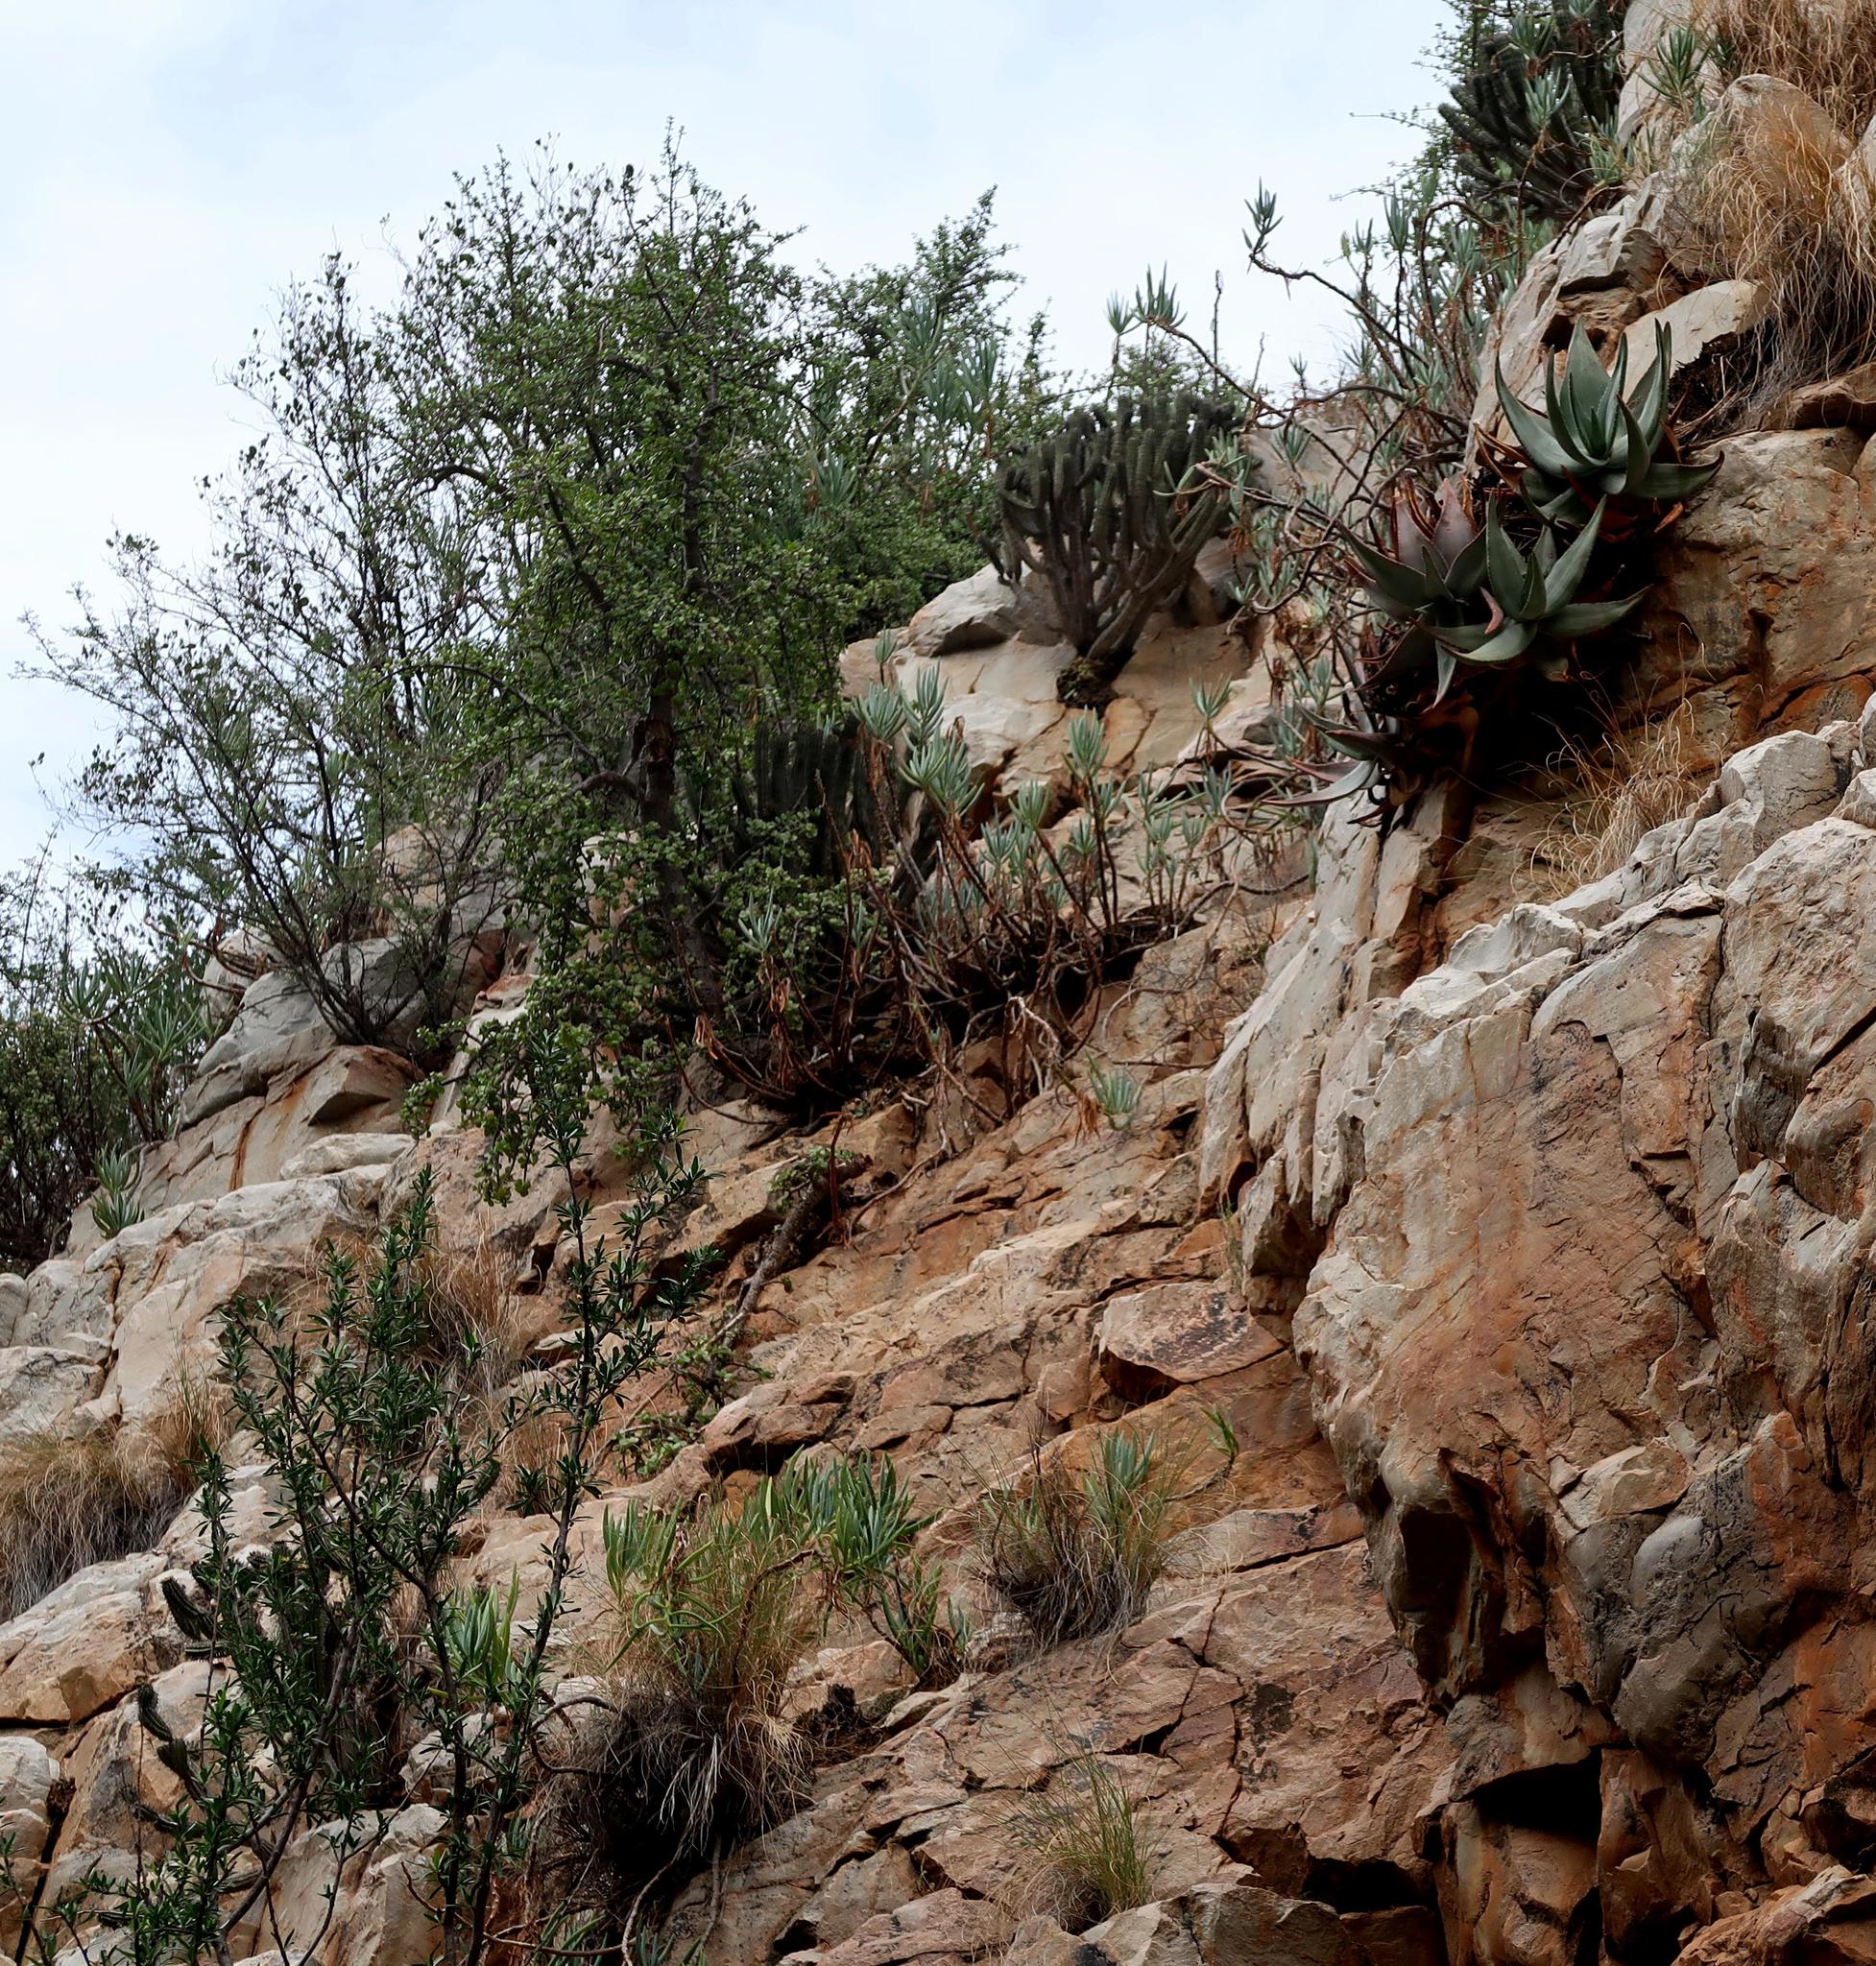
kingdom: Plantae
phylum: Tracheophyta
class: Magnoliopsida
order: Caryophyllales
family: Didiereaceae
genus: Portulacaria
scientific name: Portulacaria afra
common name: Elephant-bush
